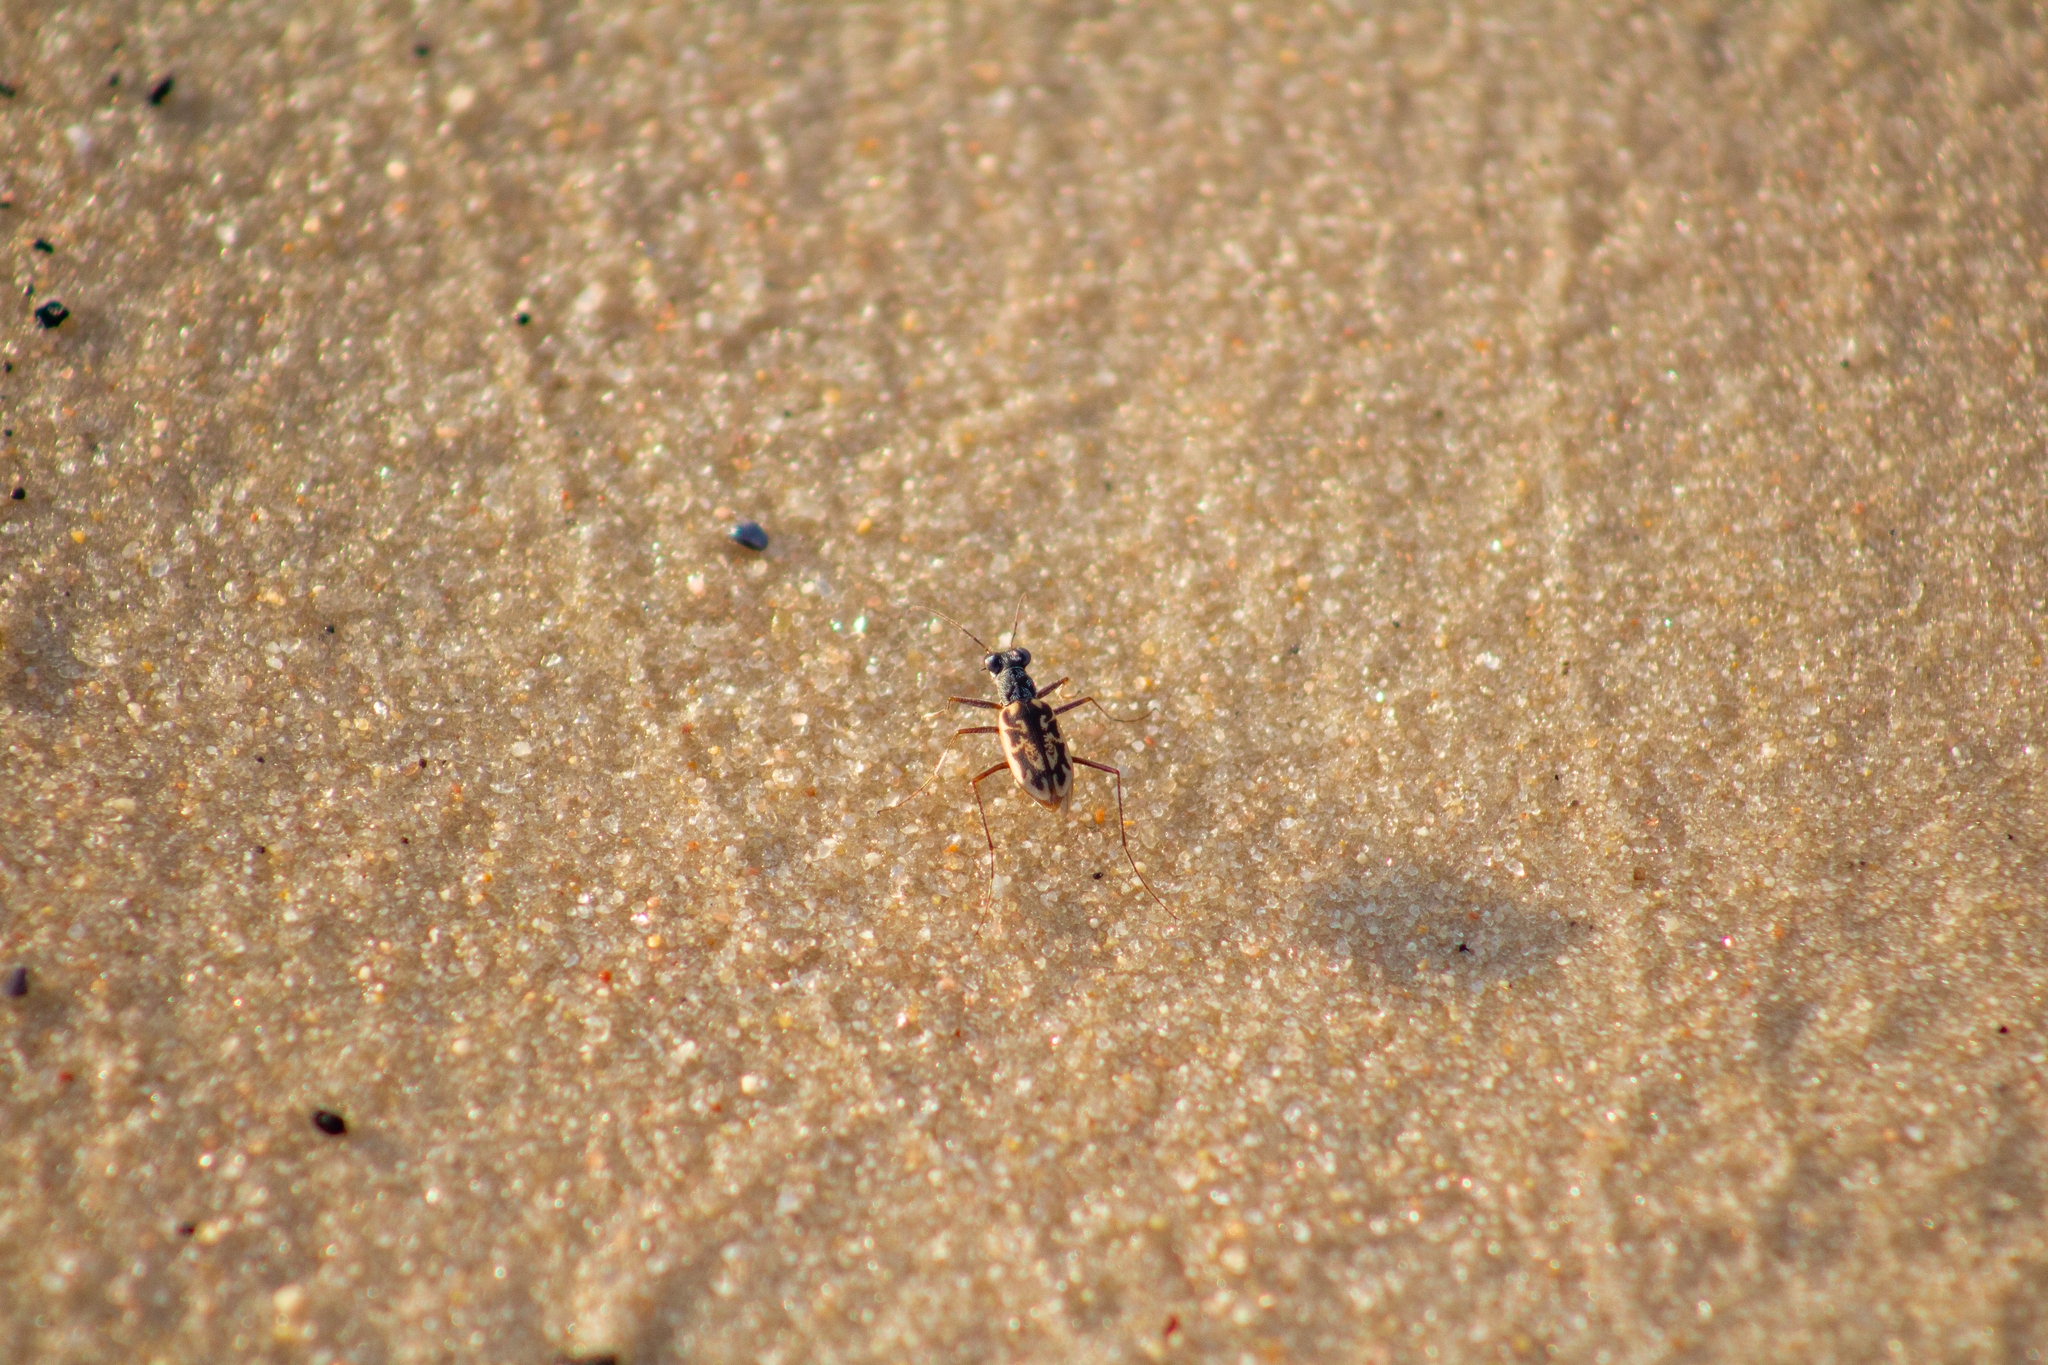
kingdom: Animalia
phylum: Arthropoda
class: Insecta
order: Coleoptera
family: Carabidae
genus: Ellipsoptera
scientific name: Ellipsoptera hamata
